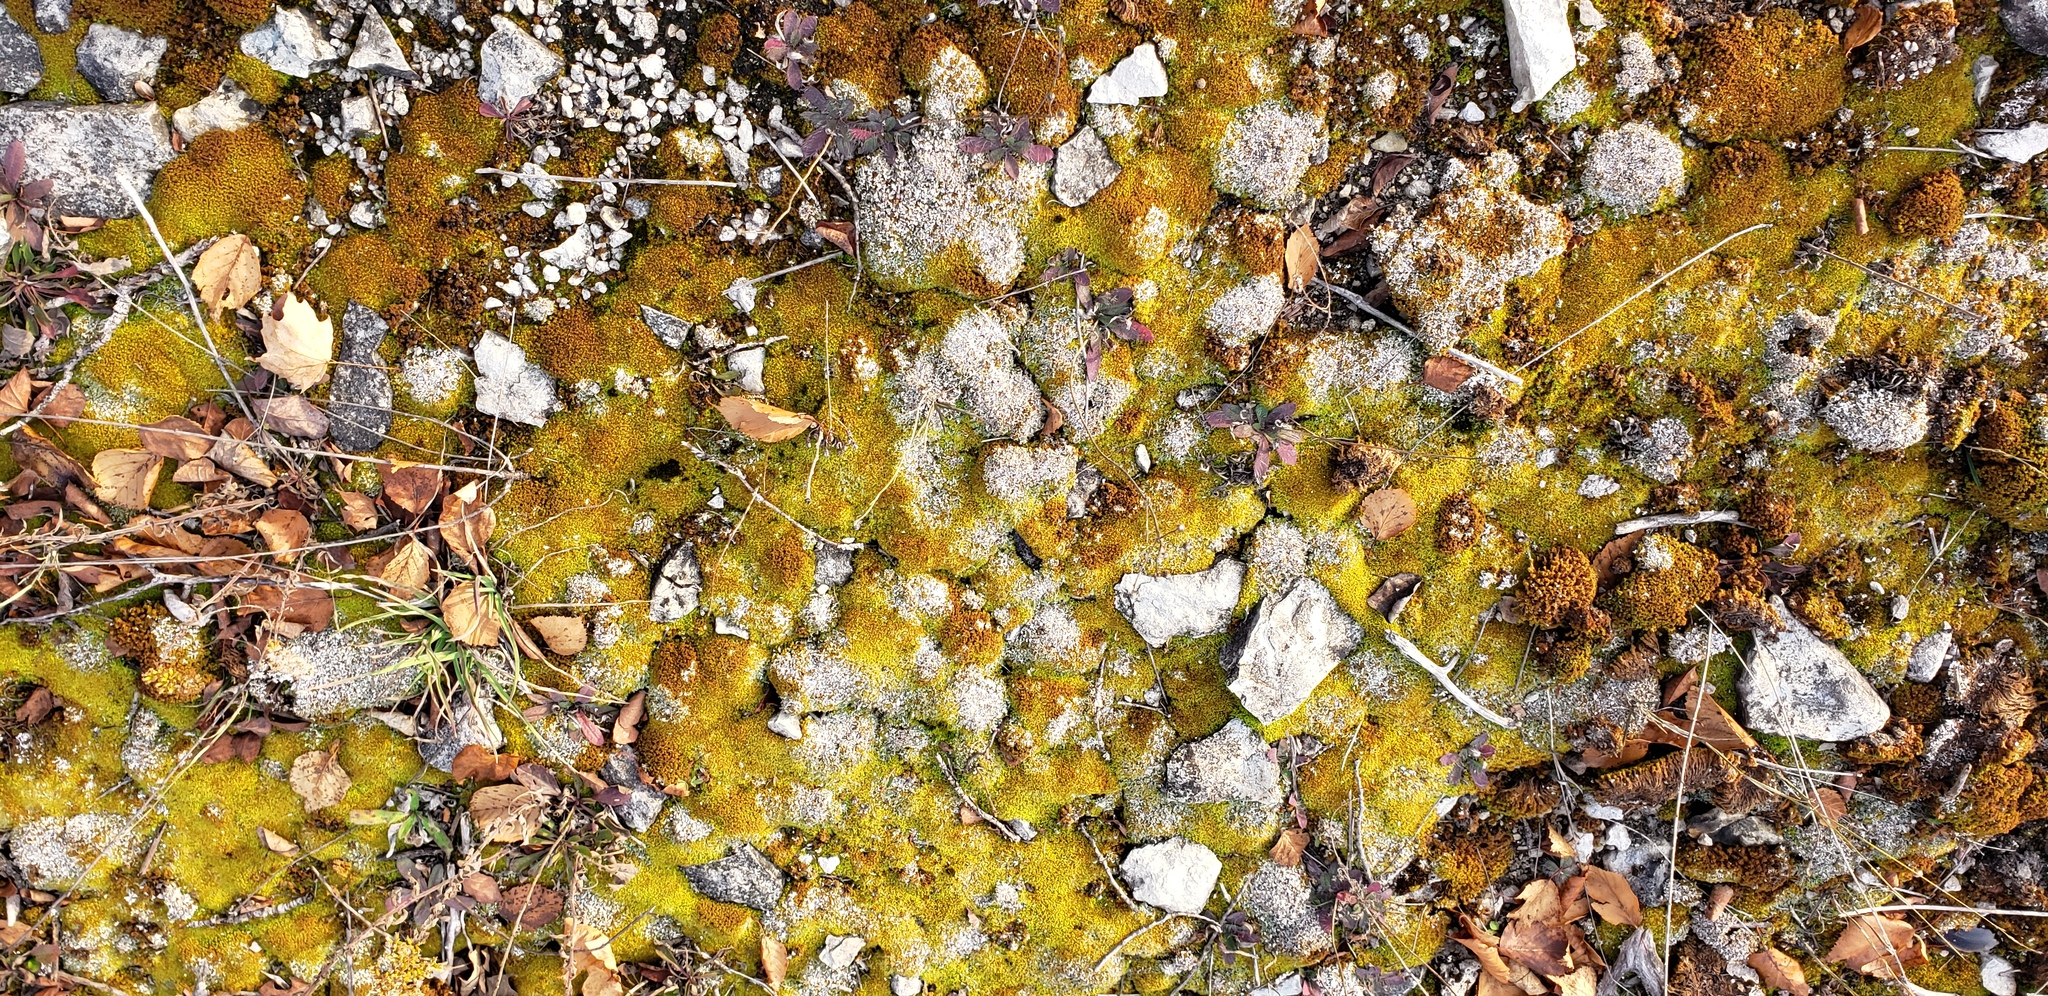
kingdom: Fungi
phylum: Ascomycota
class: Lecanoromycetes
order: Lecanorales
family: Cladoniaceae
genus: Cladonia
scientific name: Cladonia symphycarpa
